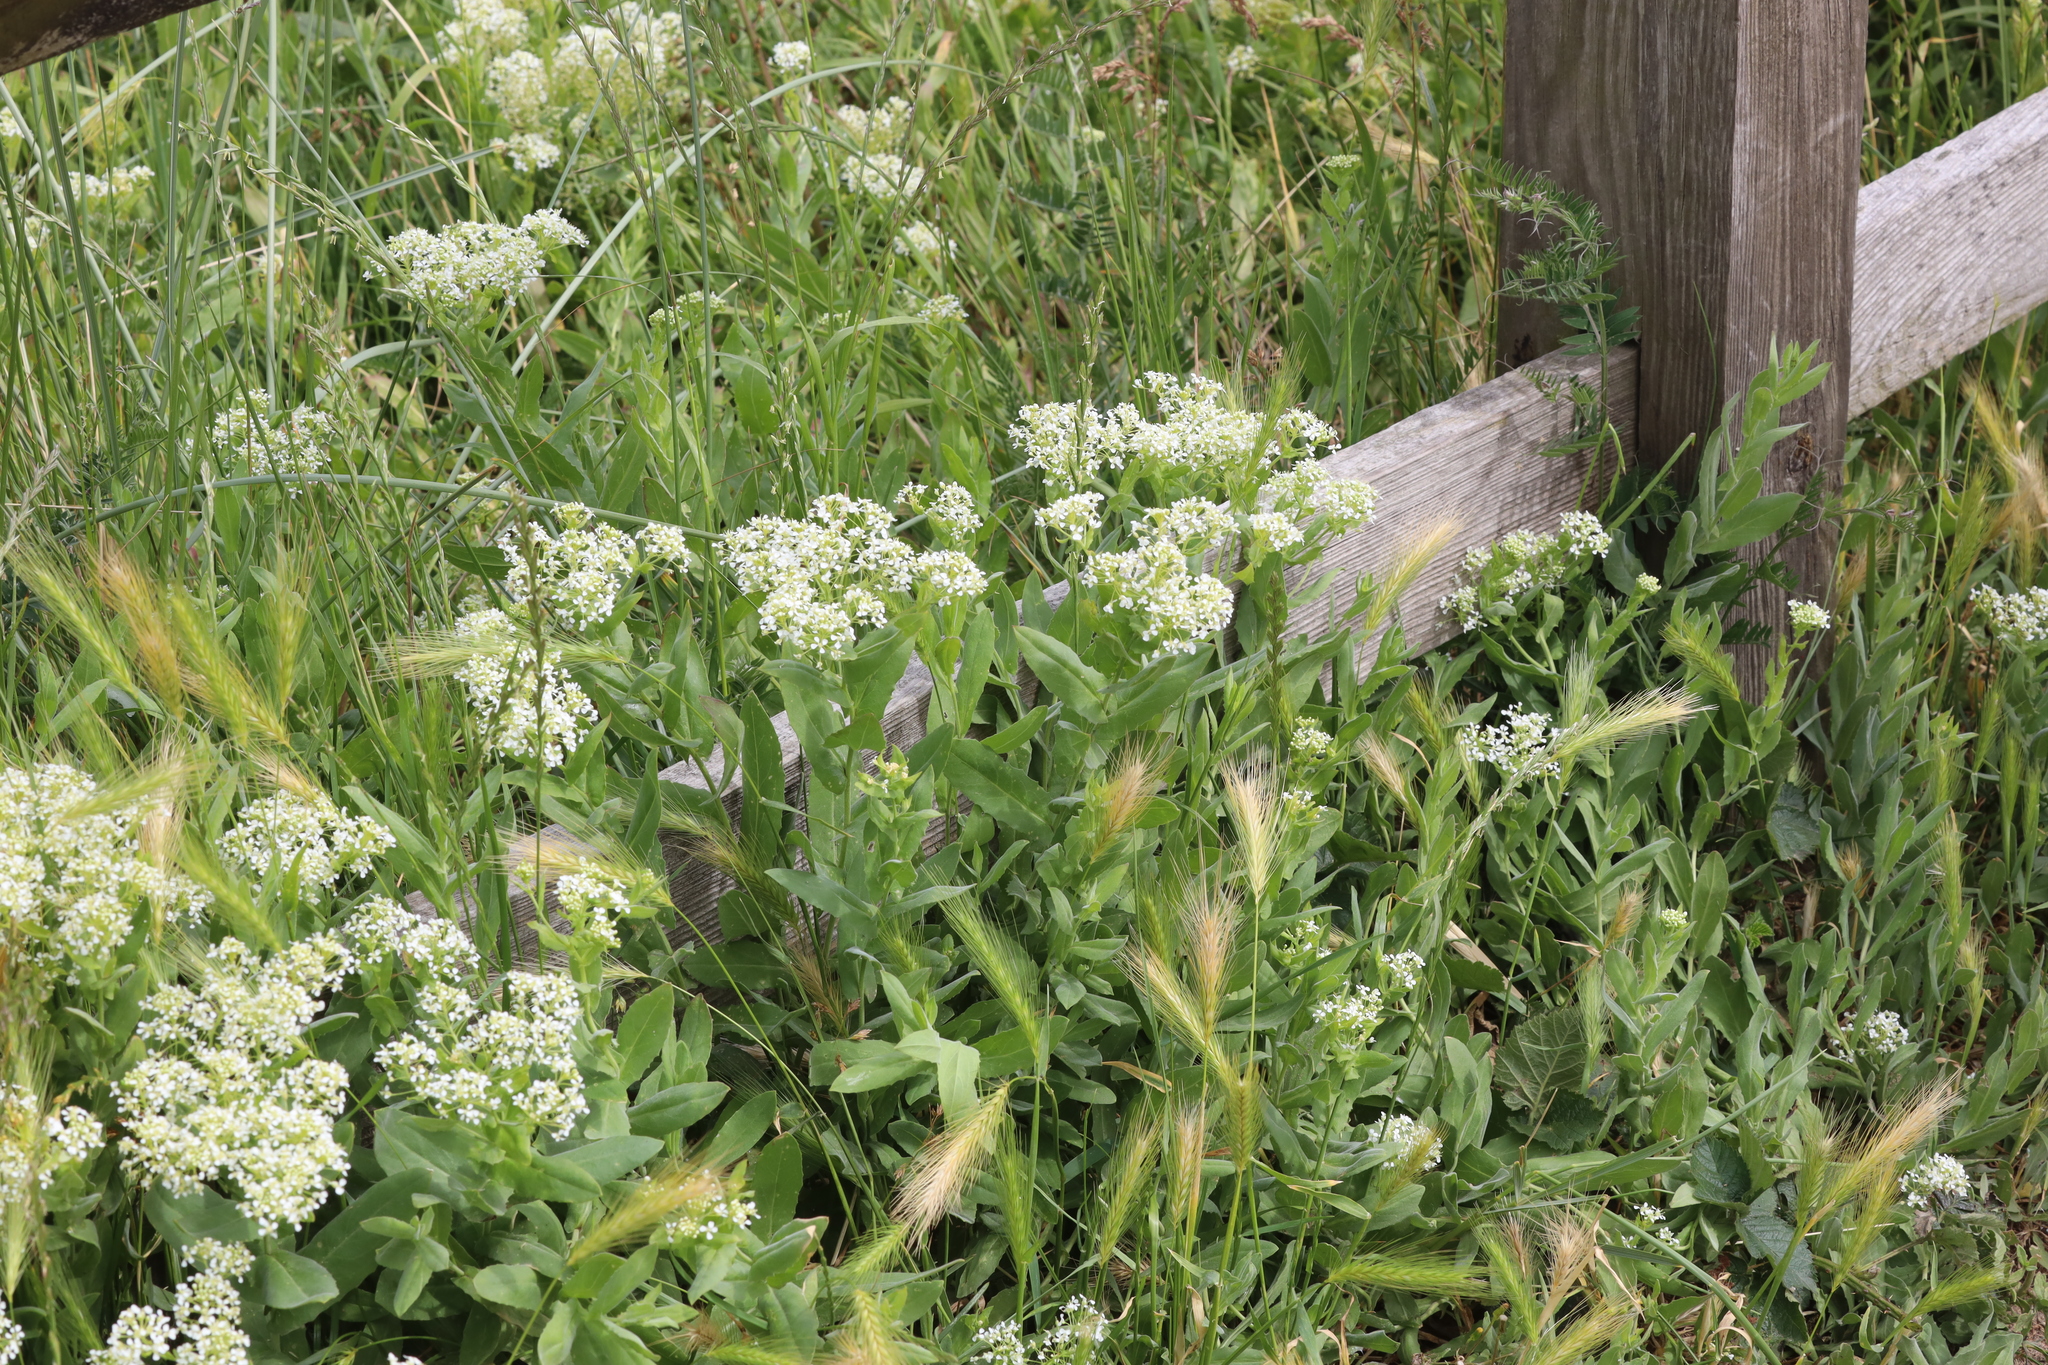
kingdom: Plantae
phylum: Tracheophyta
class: Magnoliopsida
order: Brassicales
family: Brassicaceae
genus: Lepidium
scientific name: Lepidium draba
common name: Hoary cress
